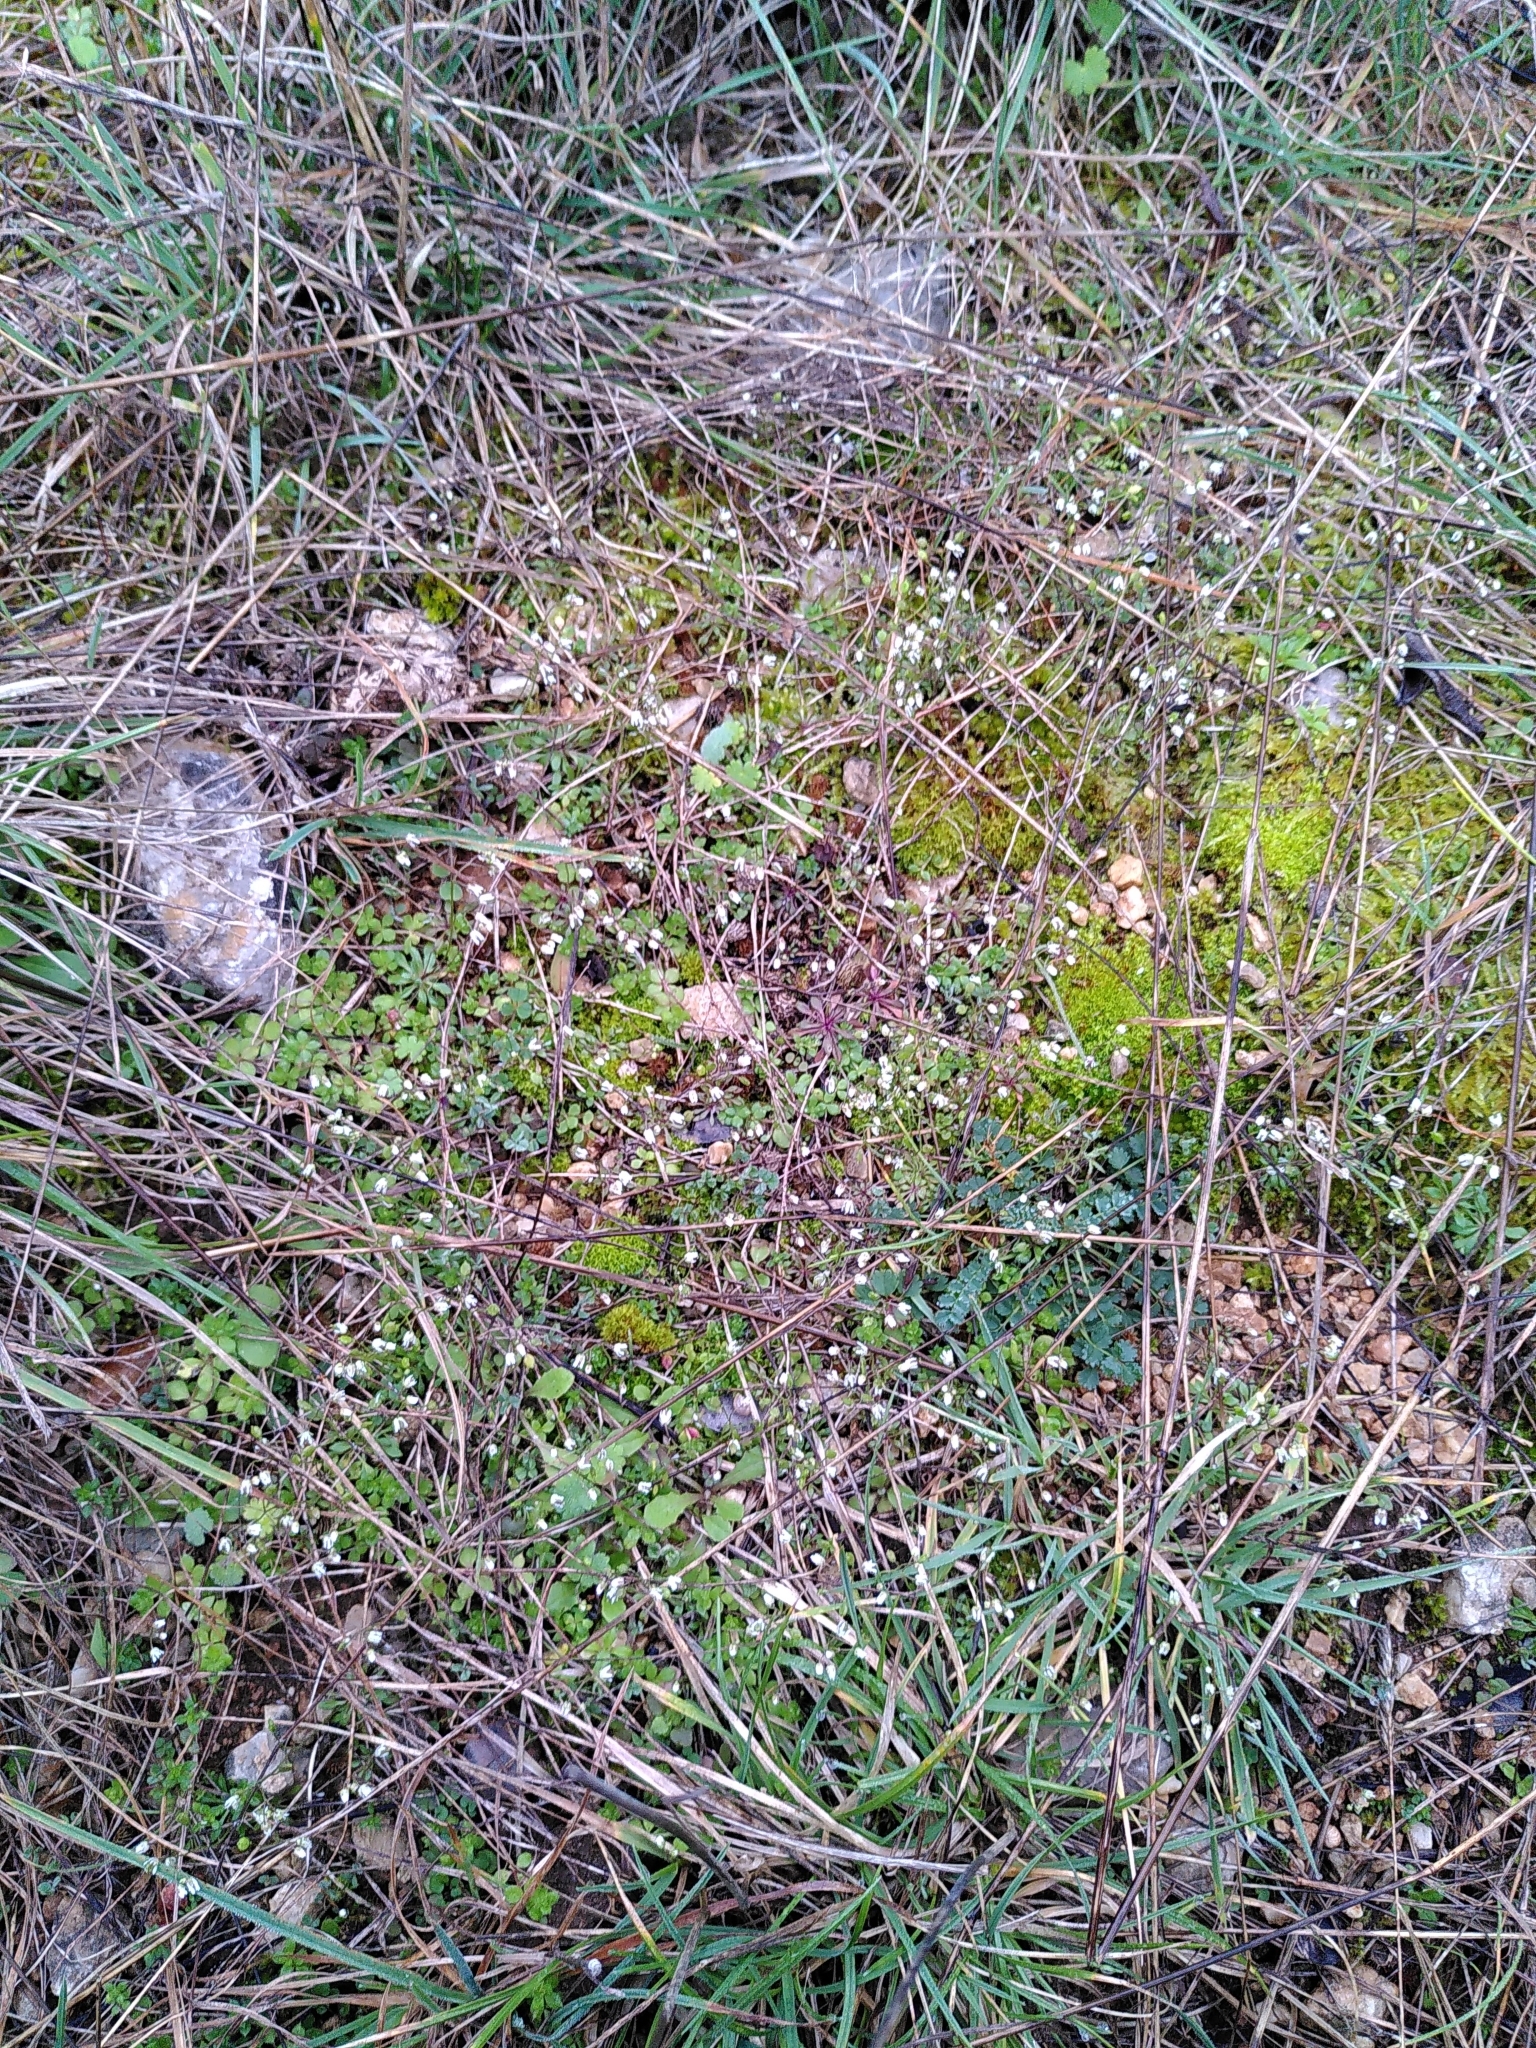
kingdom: Plantae
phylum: Tracheophyta
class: Magnoliopsida
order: Brassicales
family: Brassicaceae
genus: Draba
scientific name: Draba verna
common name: Spring draba
